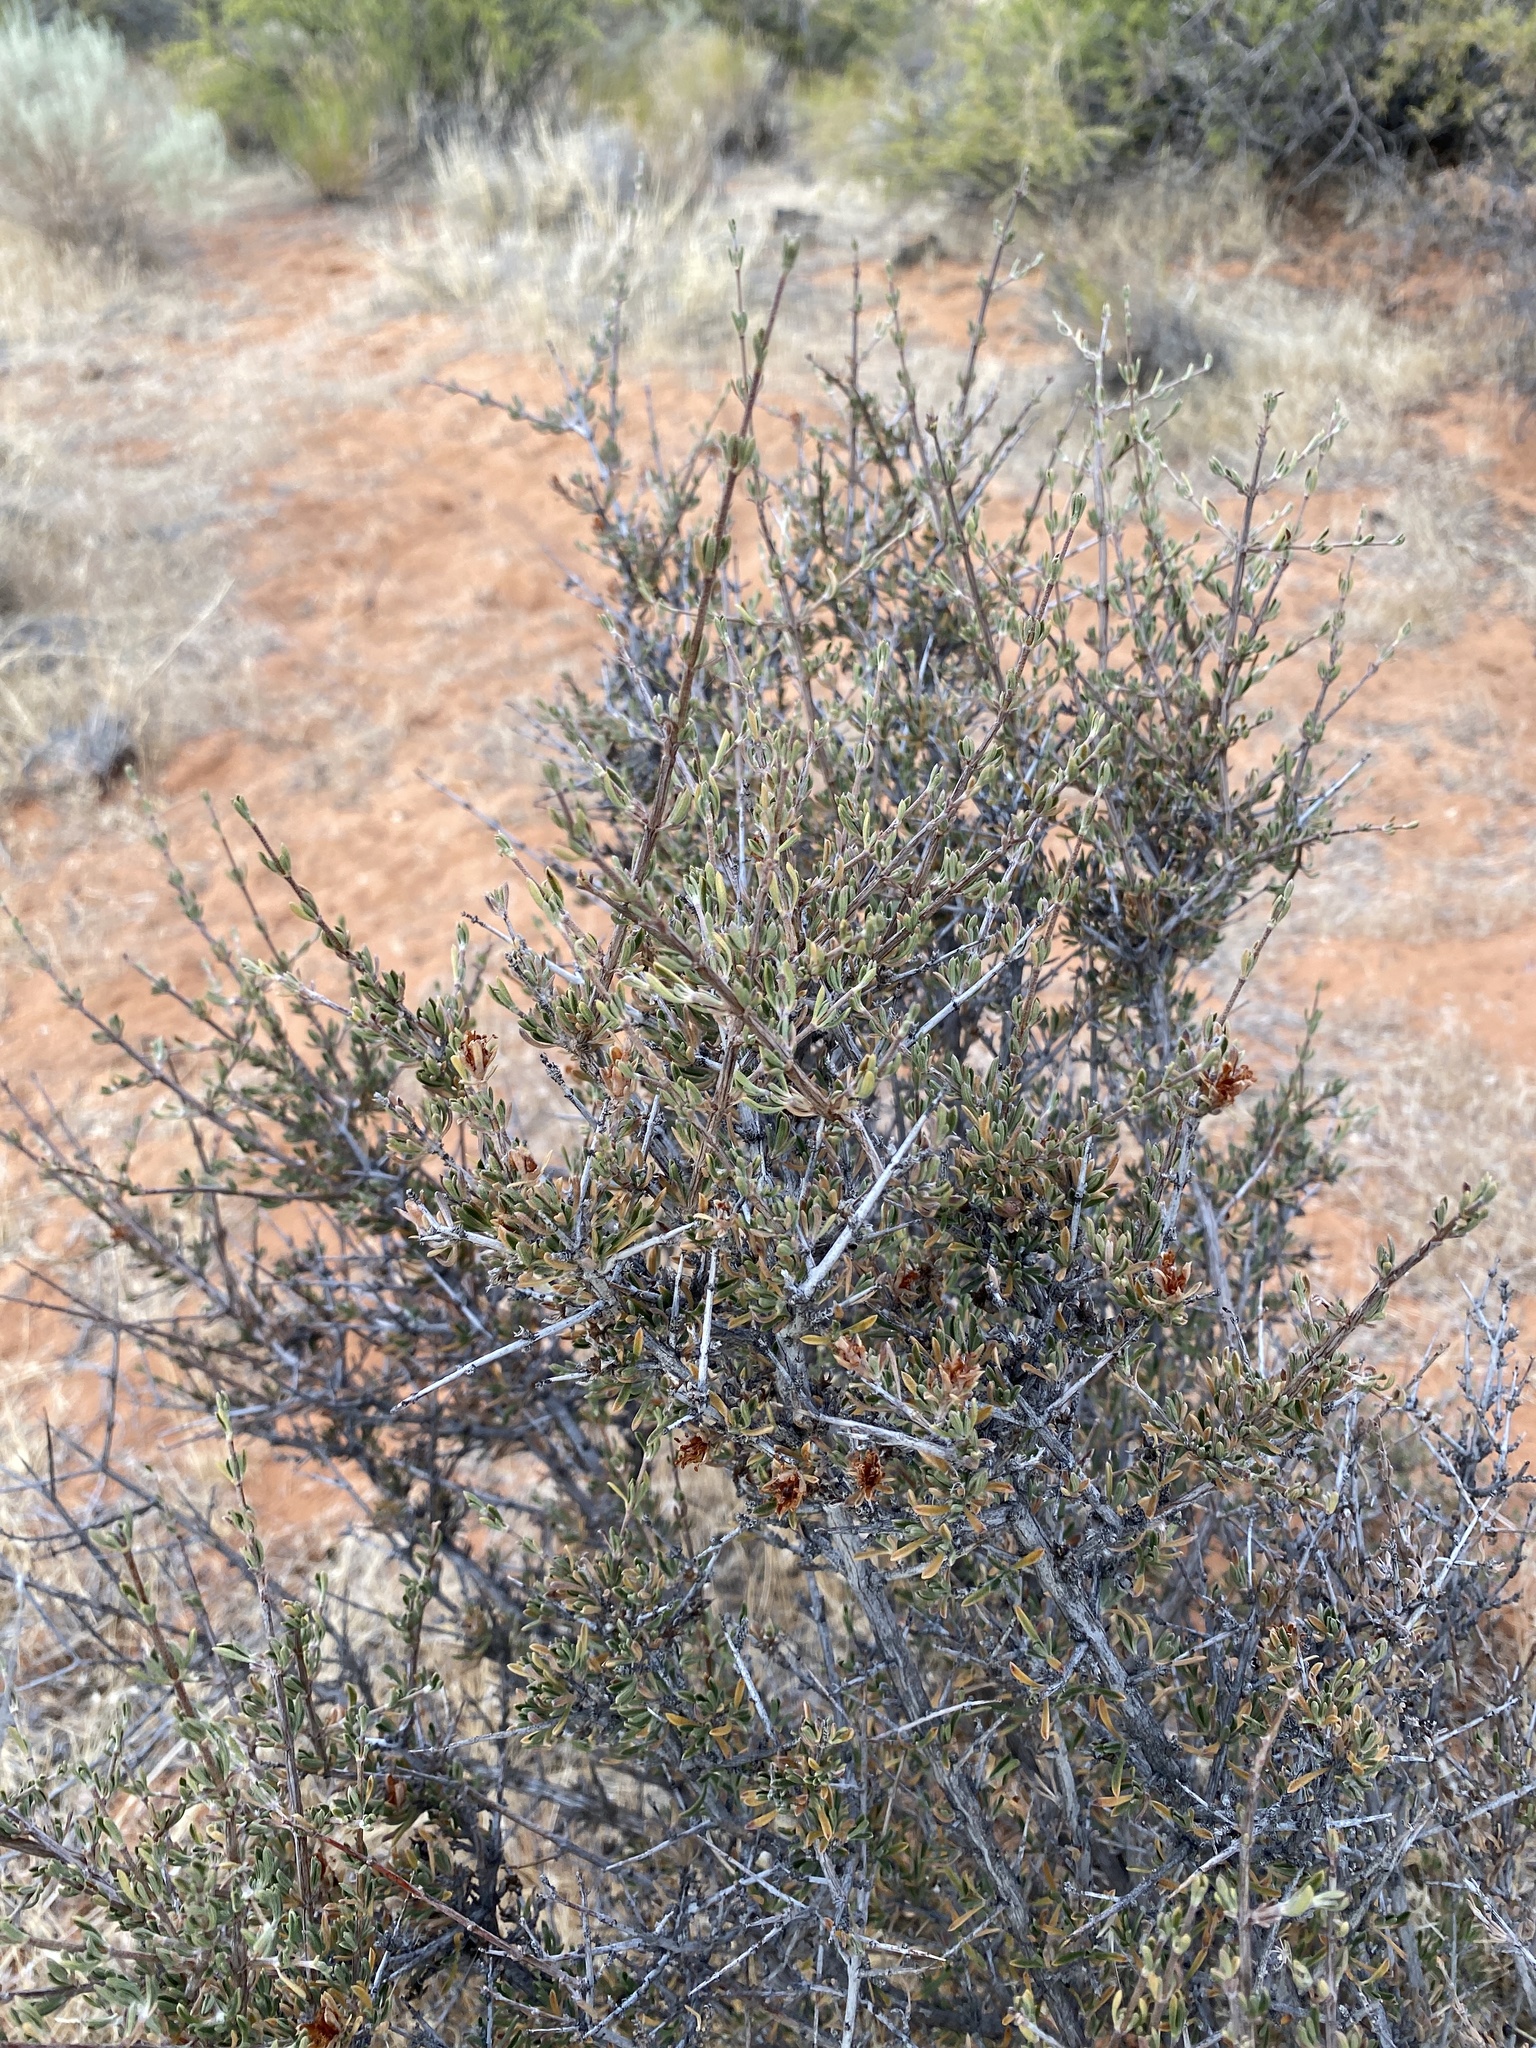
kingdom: Plantae
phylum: Tracheophyta
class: Magnoliopsida
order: Rosales
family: Rosaceae
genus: Coleogyne
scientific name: Coleogyne ramosissima
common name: Blackbrush
